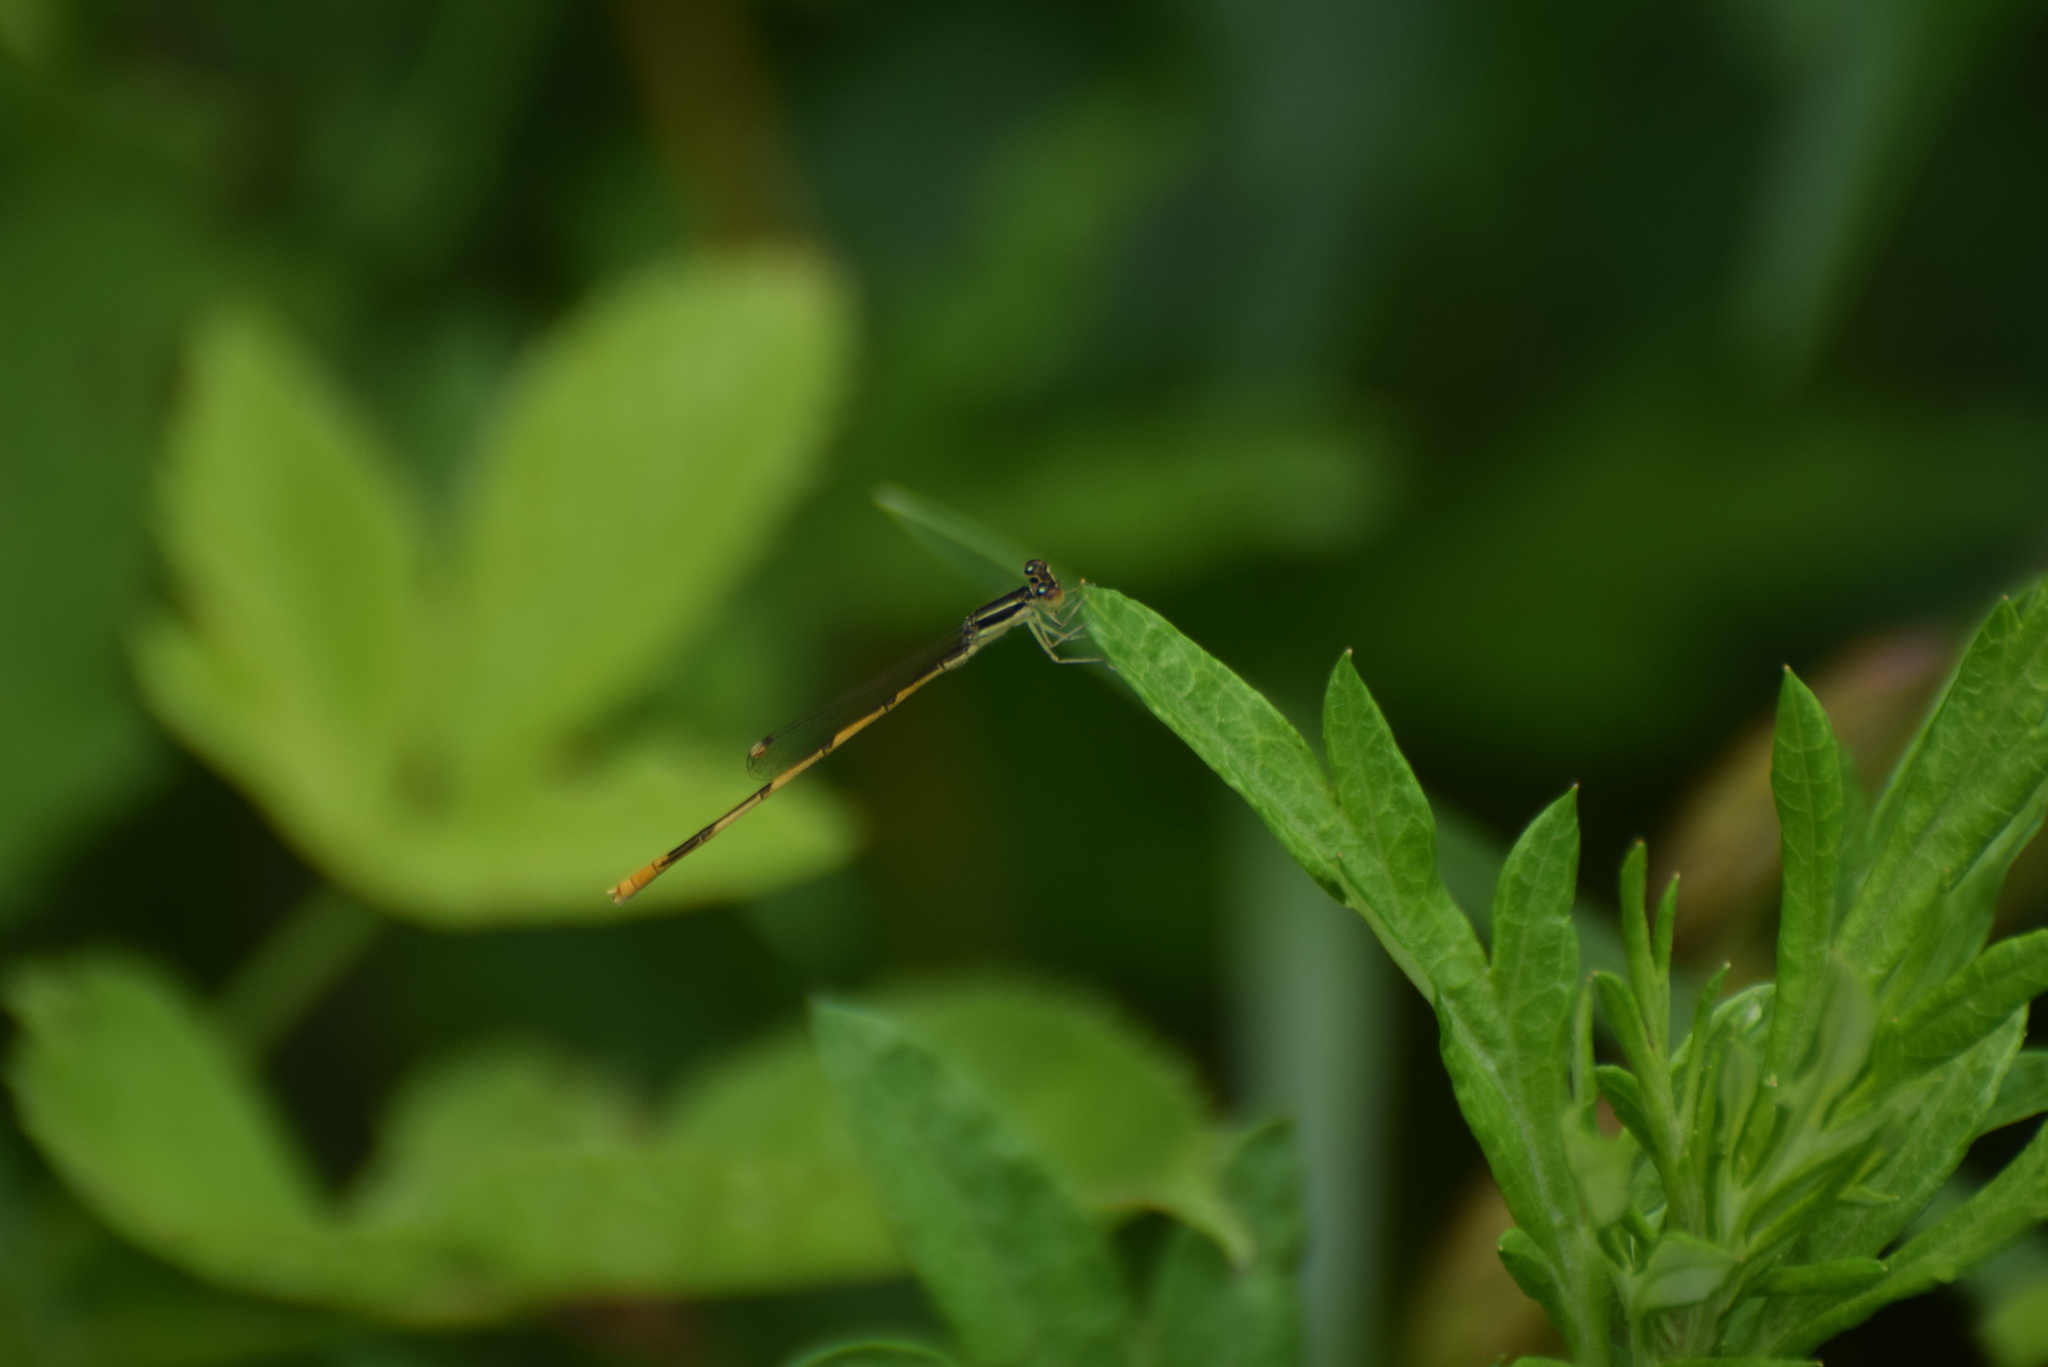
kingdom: Animalia
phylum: Arthropoda
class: Insecta
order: Odonata
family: Coenagrionidae
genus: Ischnura
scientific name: Ischnura hastata
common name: Citrine forktail
